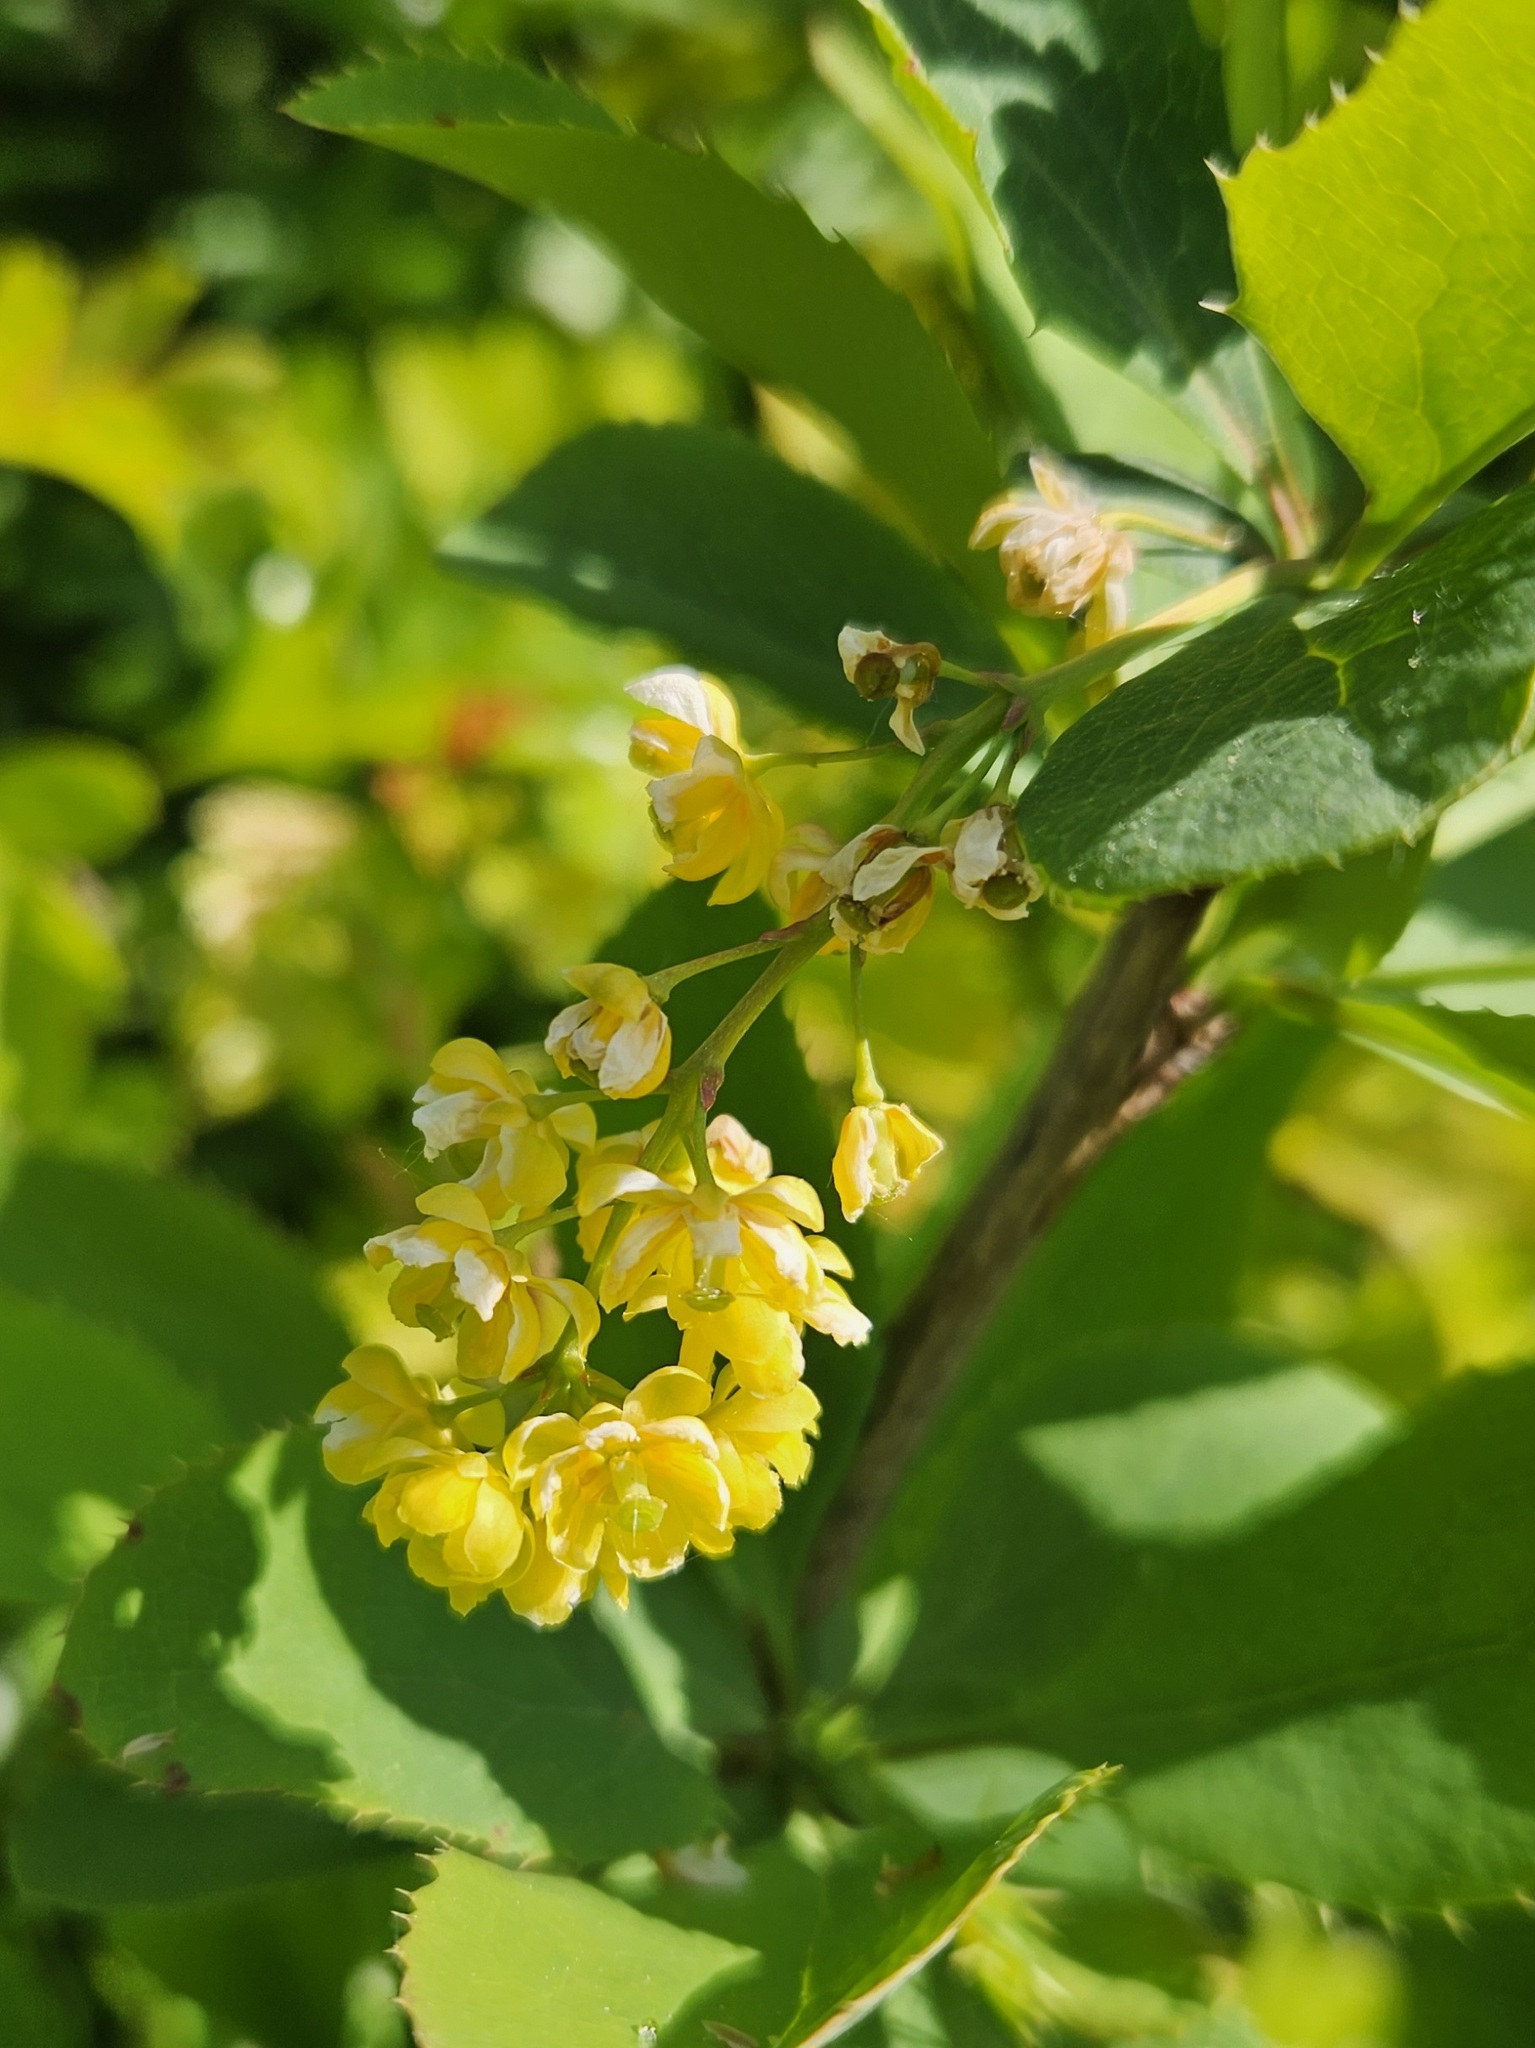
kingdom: Plantae
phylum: Tracheophyta
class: Magnoliopsida
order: Ranunculales
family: Berberidaceae
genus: Berberis
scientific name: Berberis vulgaris
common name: Barberry
